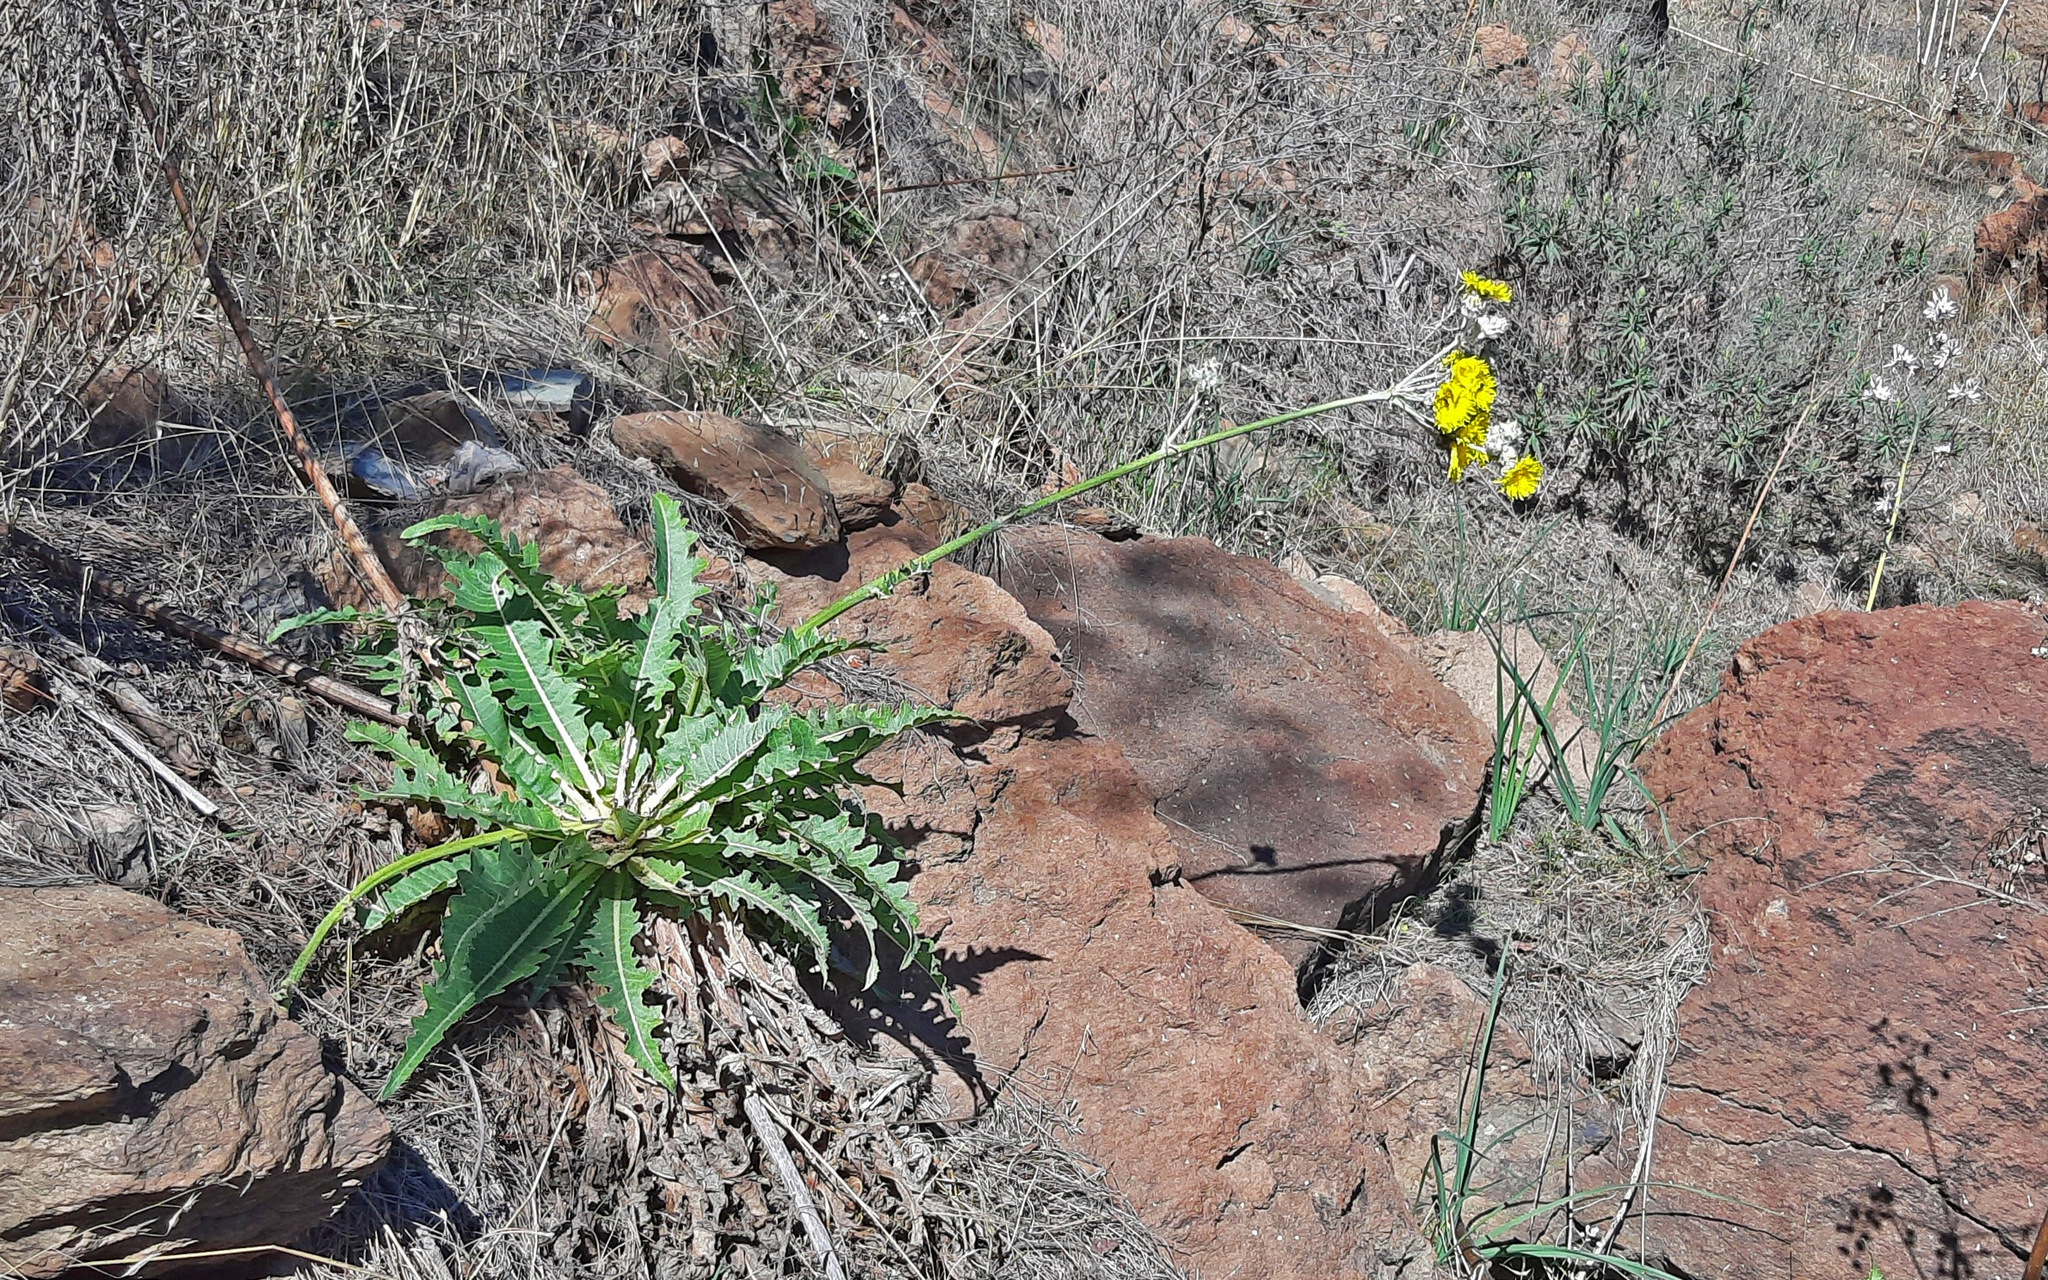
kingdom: Plantae
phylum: Tracheophyta
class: Magnoliopsida
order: Asterales
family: Asteraceae
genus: Sonchus
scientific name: Sonchus acaulis
